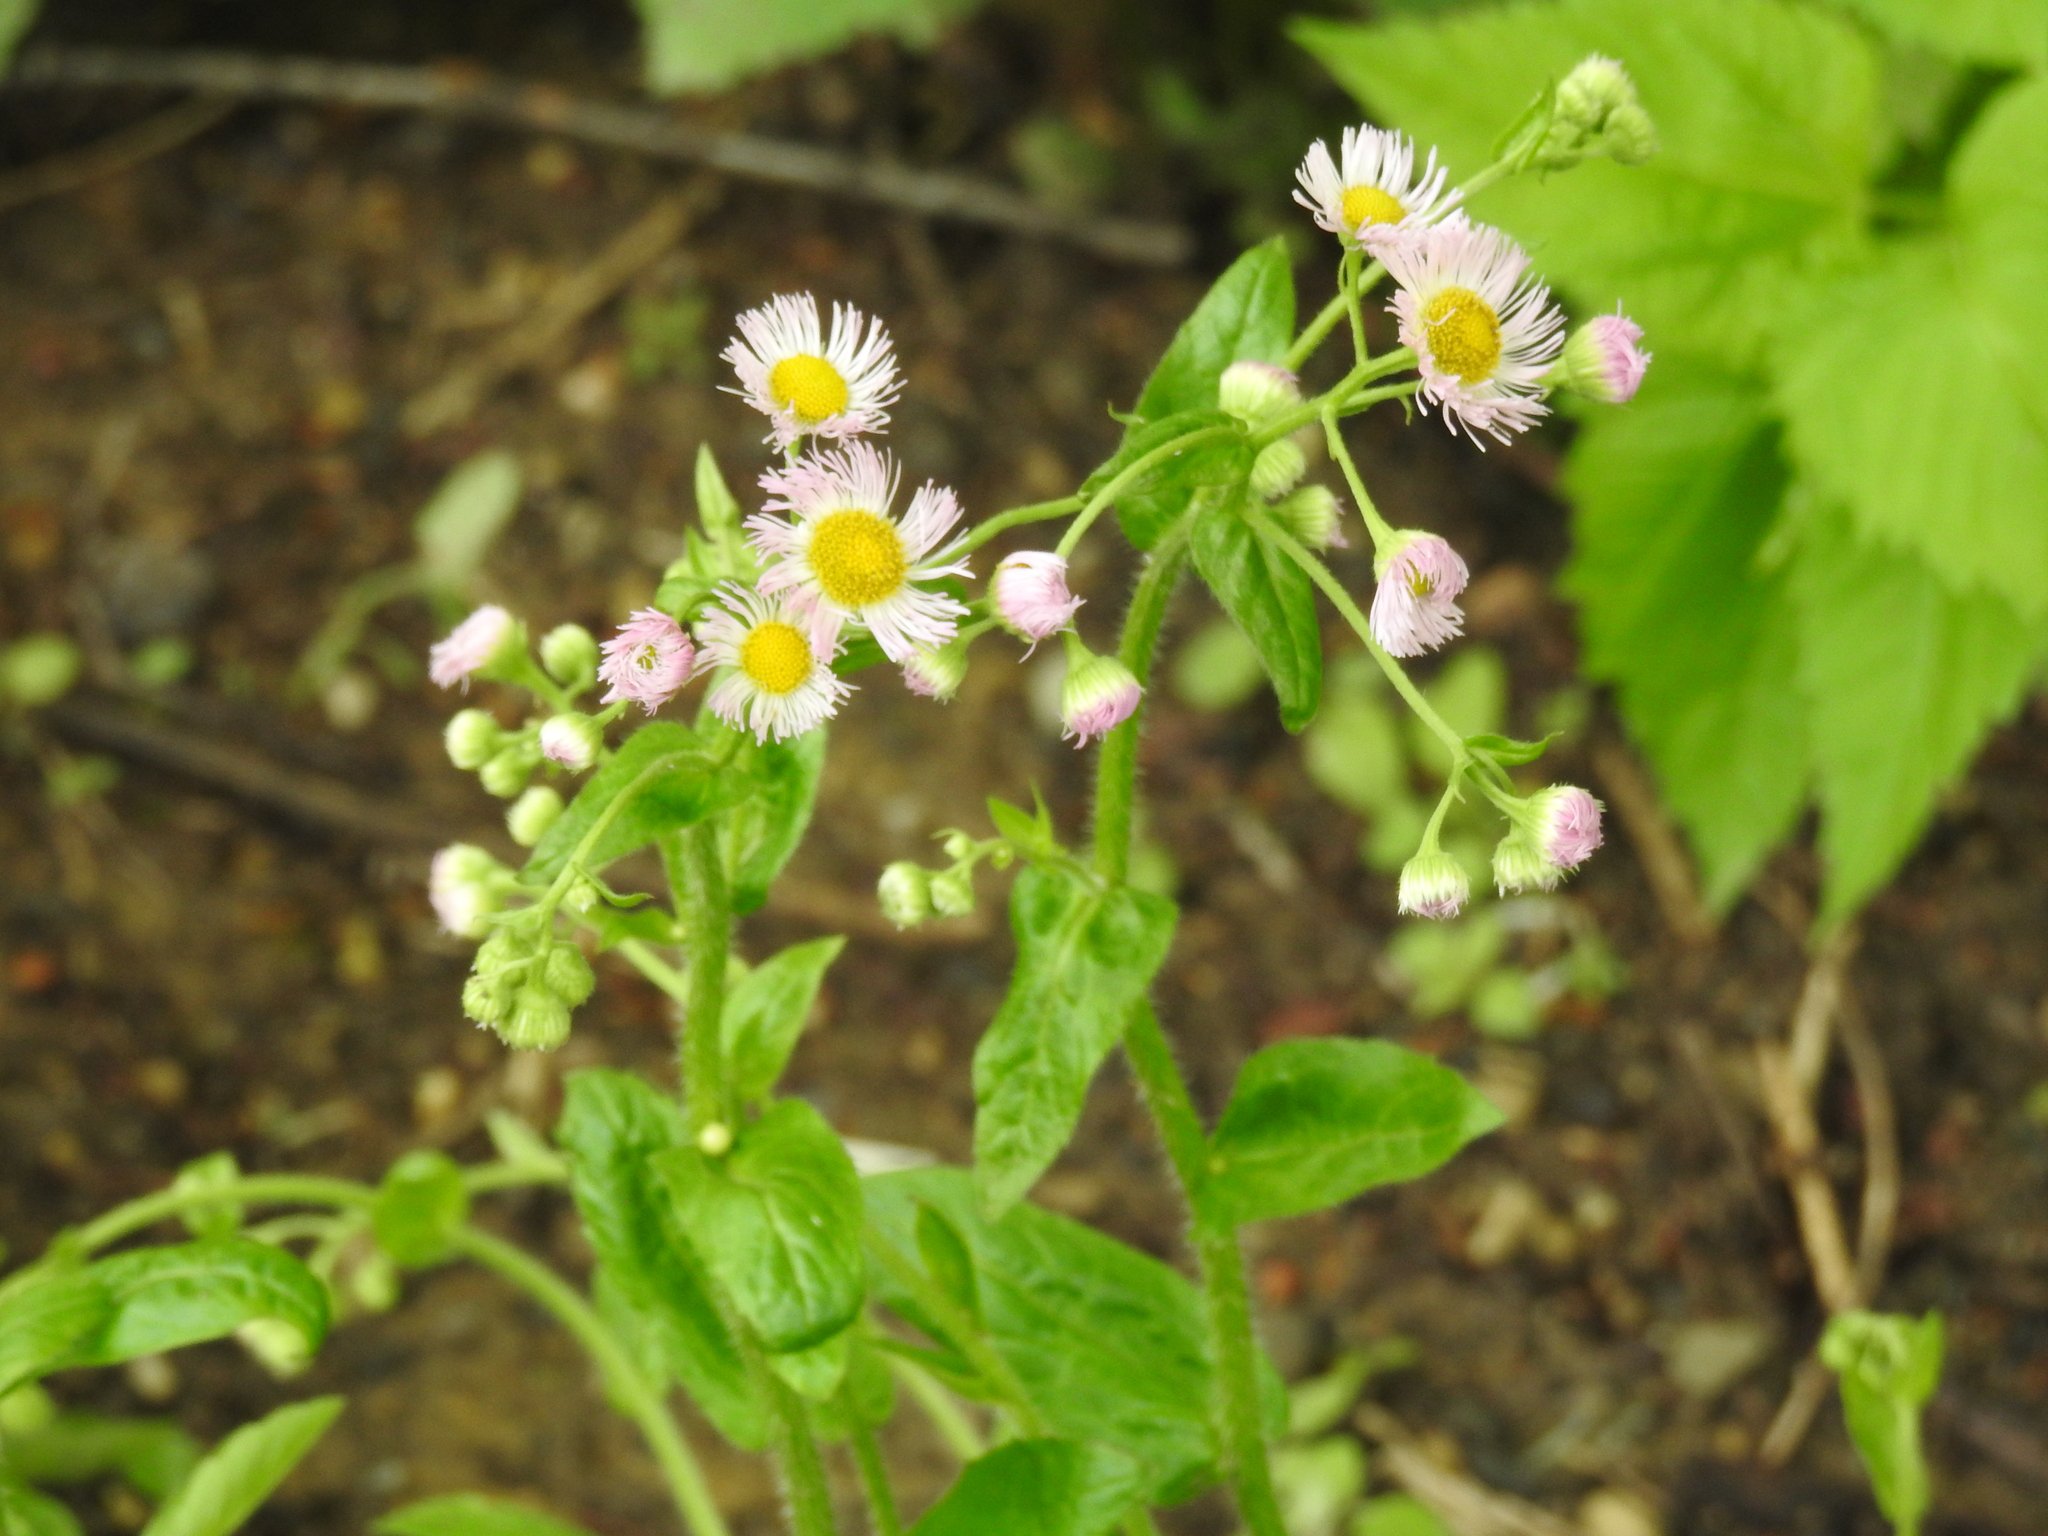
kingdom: Plantae
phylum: Tracheophyta
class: Magnoliopsida
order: Asterales
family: Asteraceae
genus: Erigeron
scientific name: Erigeron philadelphicus
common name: Robin's-plantain
